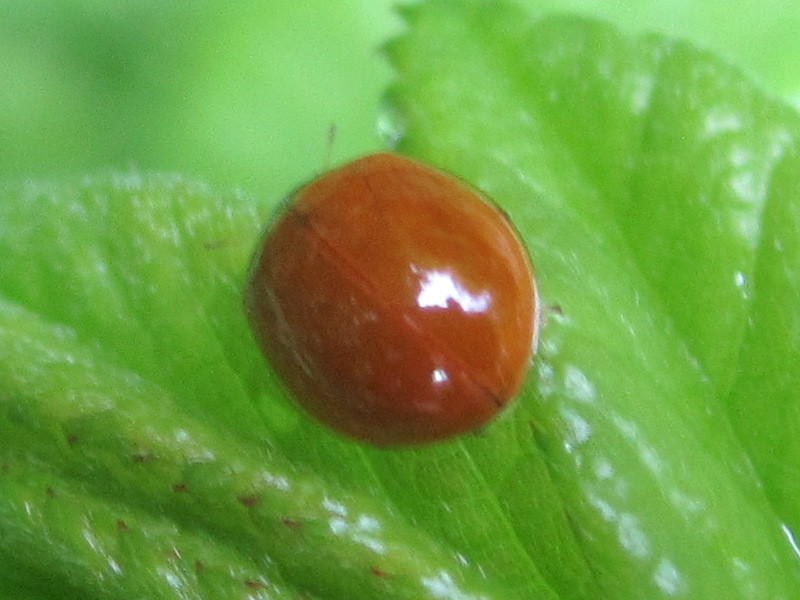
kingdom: Animalia
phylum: Arthropoda
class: Insecta
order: Coleoptera
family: Coccinellidae
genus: Cycloneda
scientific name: Cycloneda munda
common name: Polished lady beetle
